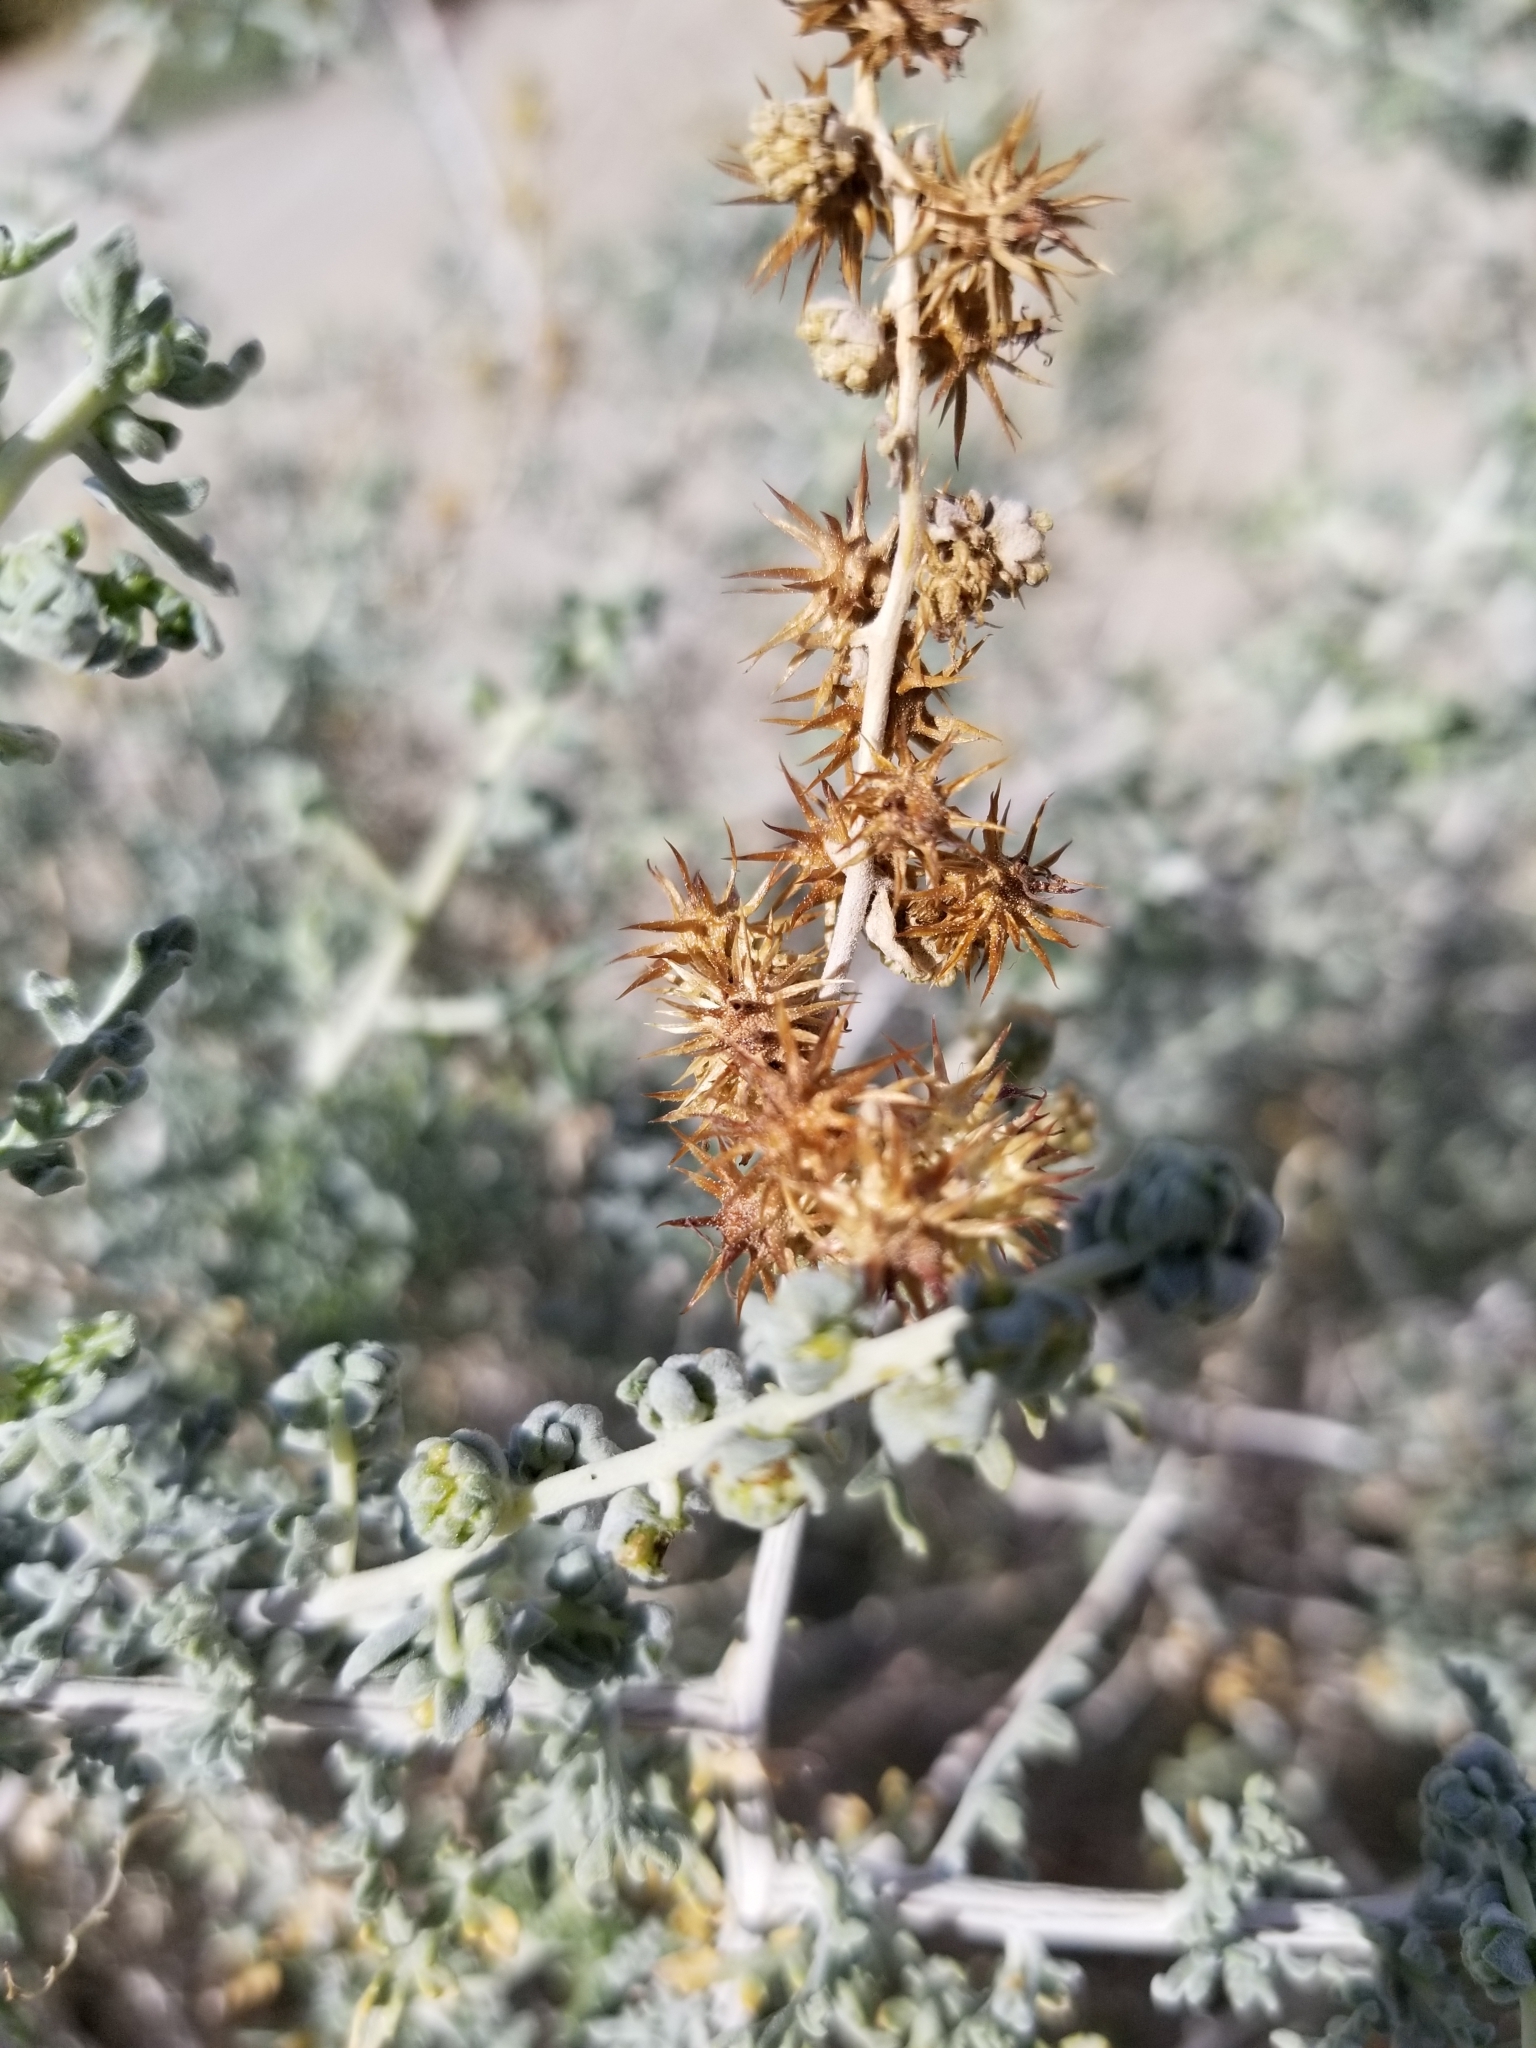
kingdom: Plantae
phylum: Tracheophyta
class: Magnoliopsida
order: Asterales
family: Asteraceae
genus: Ambrosia
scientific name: Ambrosia dumosa
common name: Bur-sage
